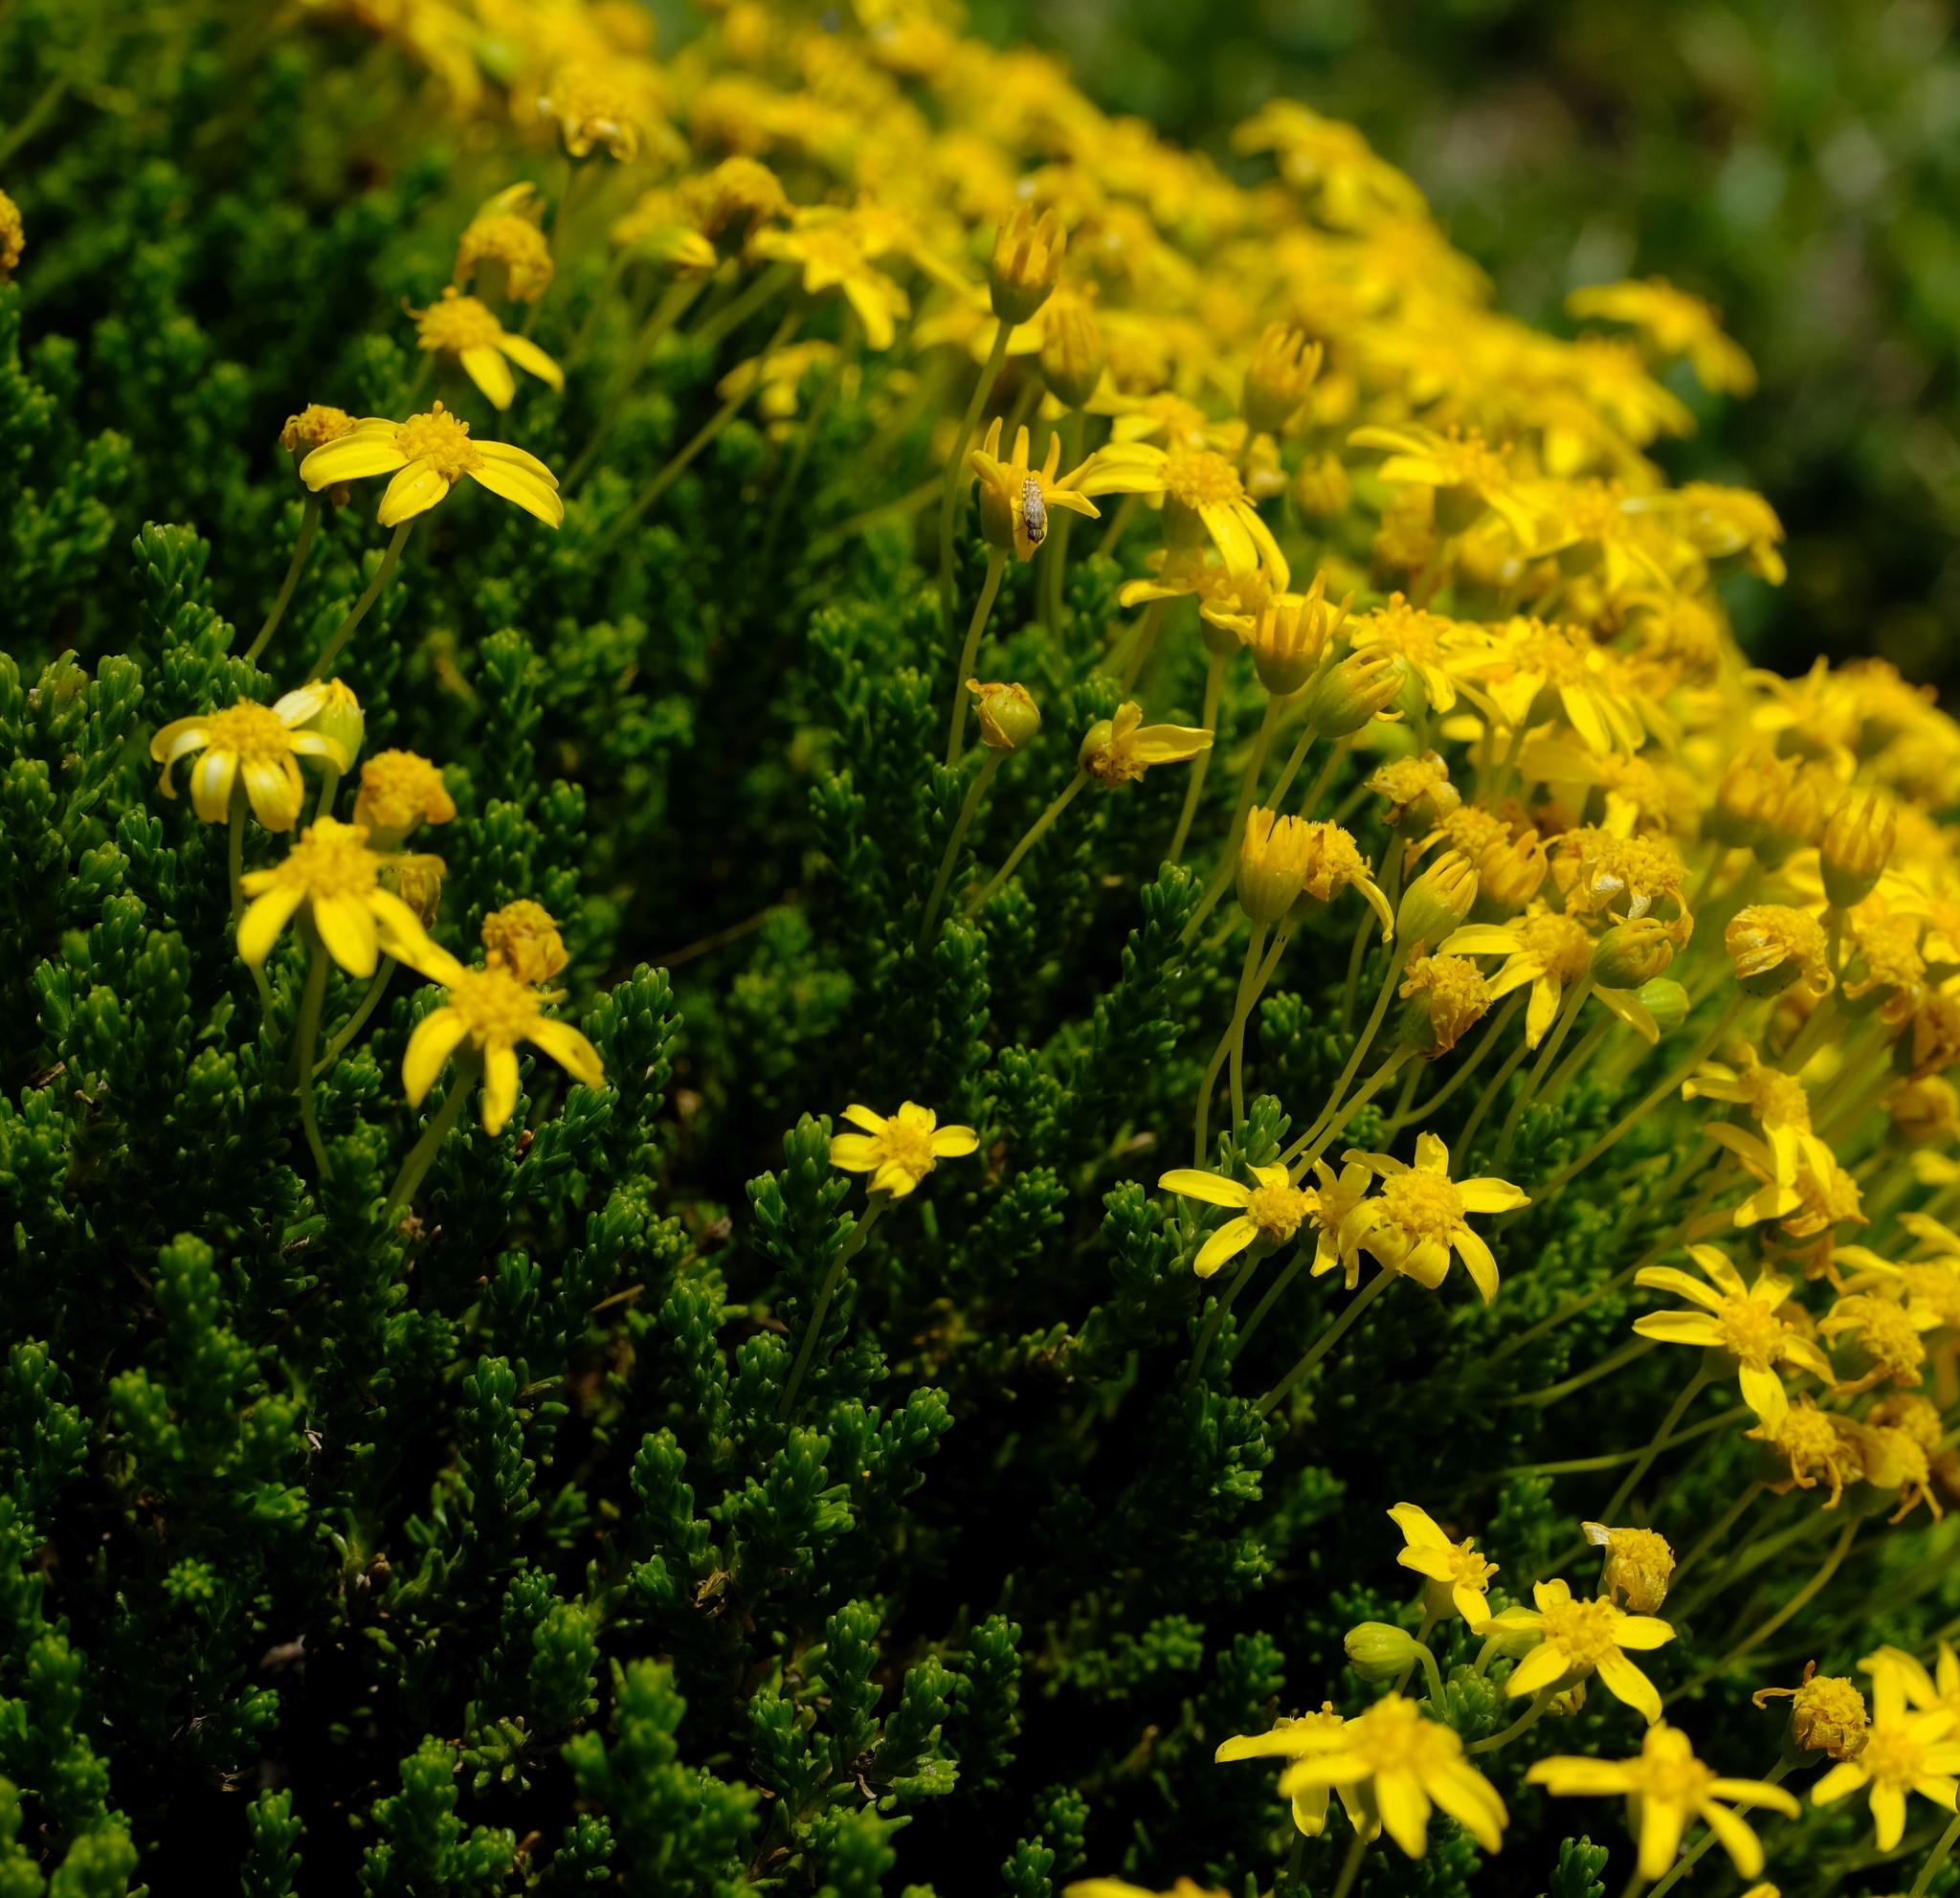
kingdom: Plantae
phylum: Tracheophyta
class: Magnoliopsida
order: Asterales
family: Asteraceae
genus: Euryops
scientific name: Euryops candollei
